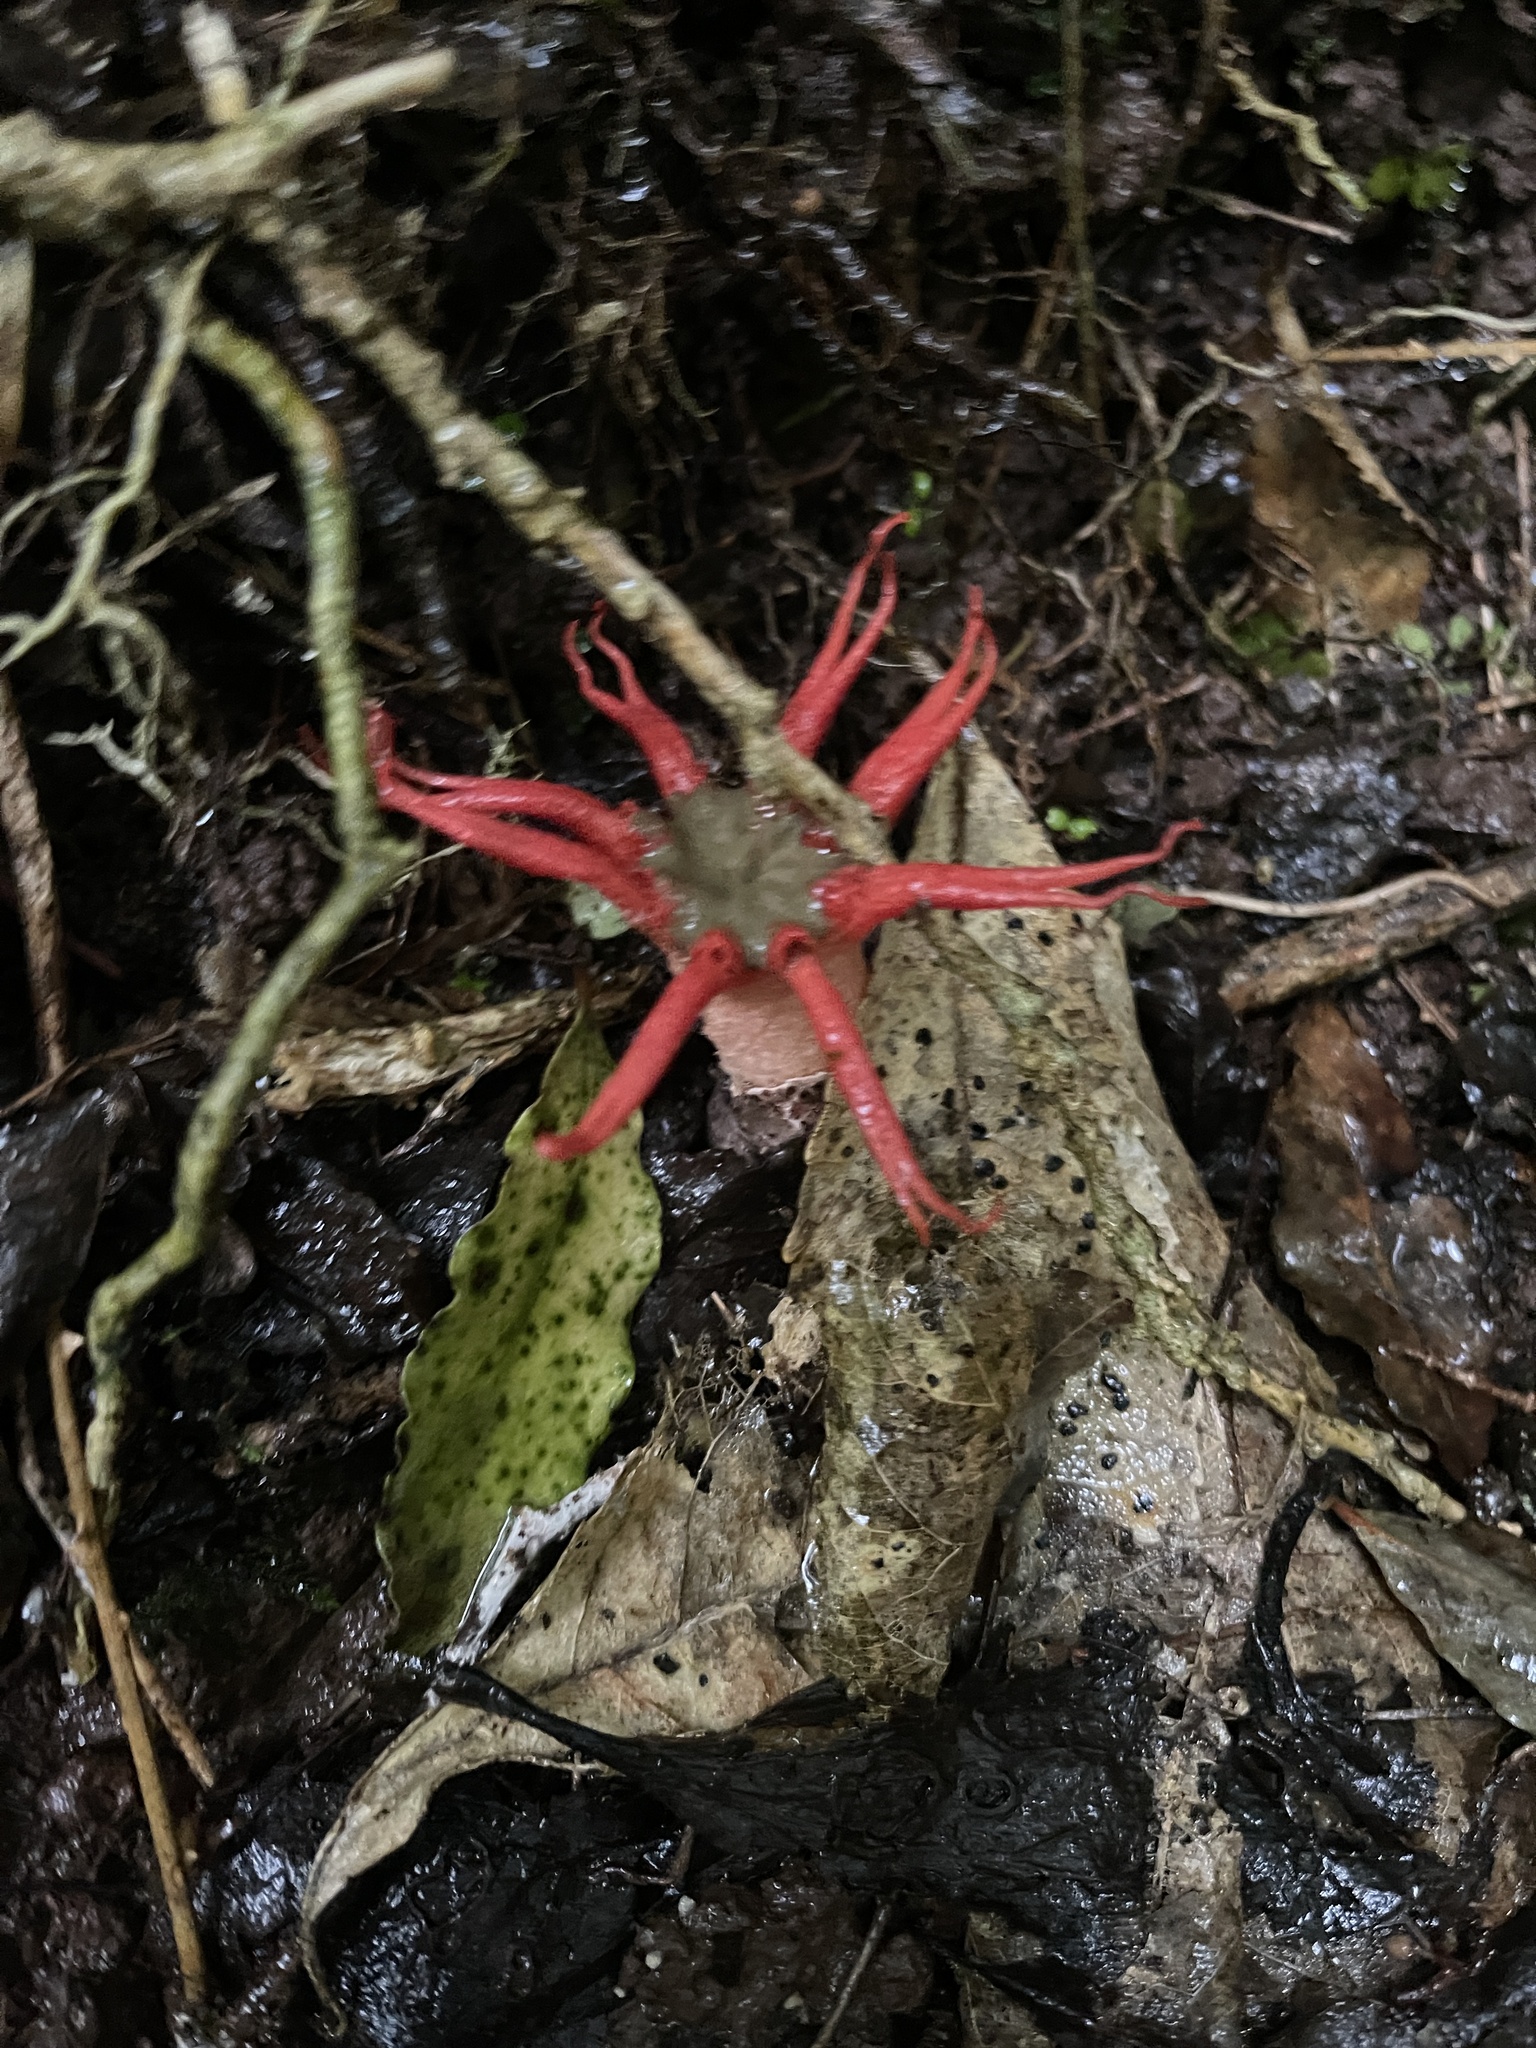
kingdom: Fungi
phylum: Basidiomycota
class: Agaricomycetes
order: Phallales
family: Phallaceae
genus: Aseroe
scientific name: Aseroe rubra
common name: Starfish fungus
